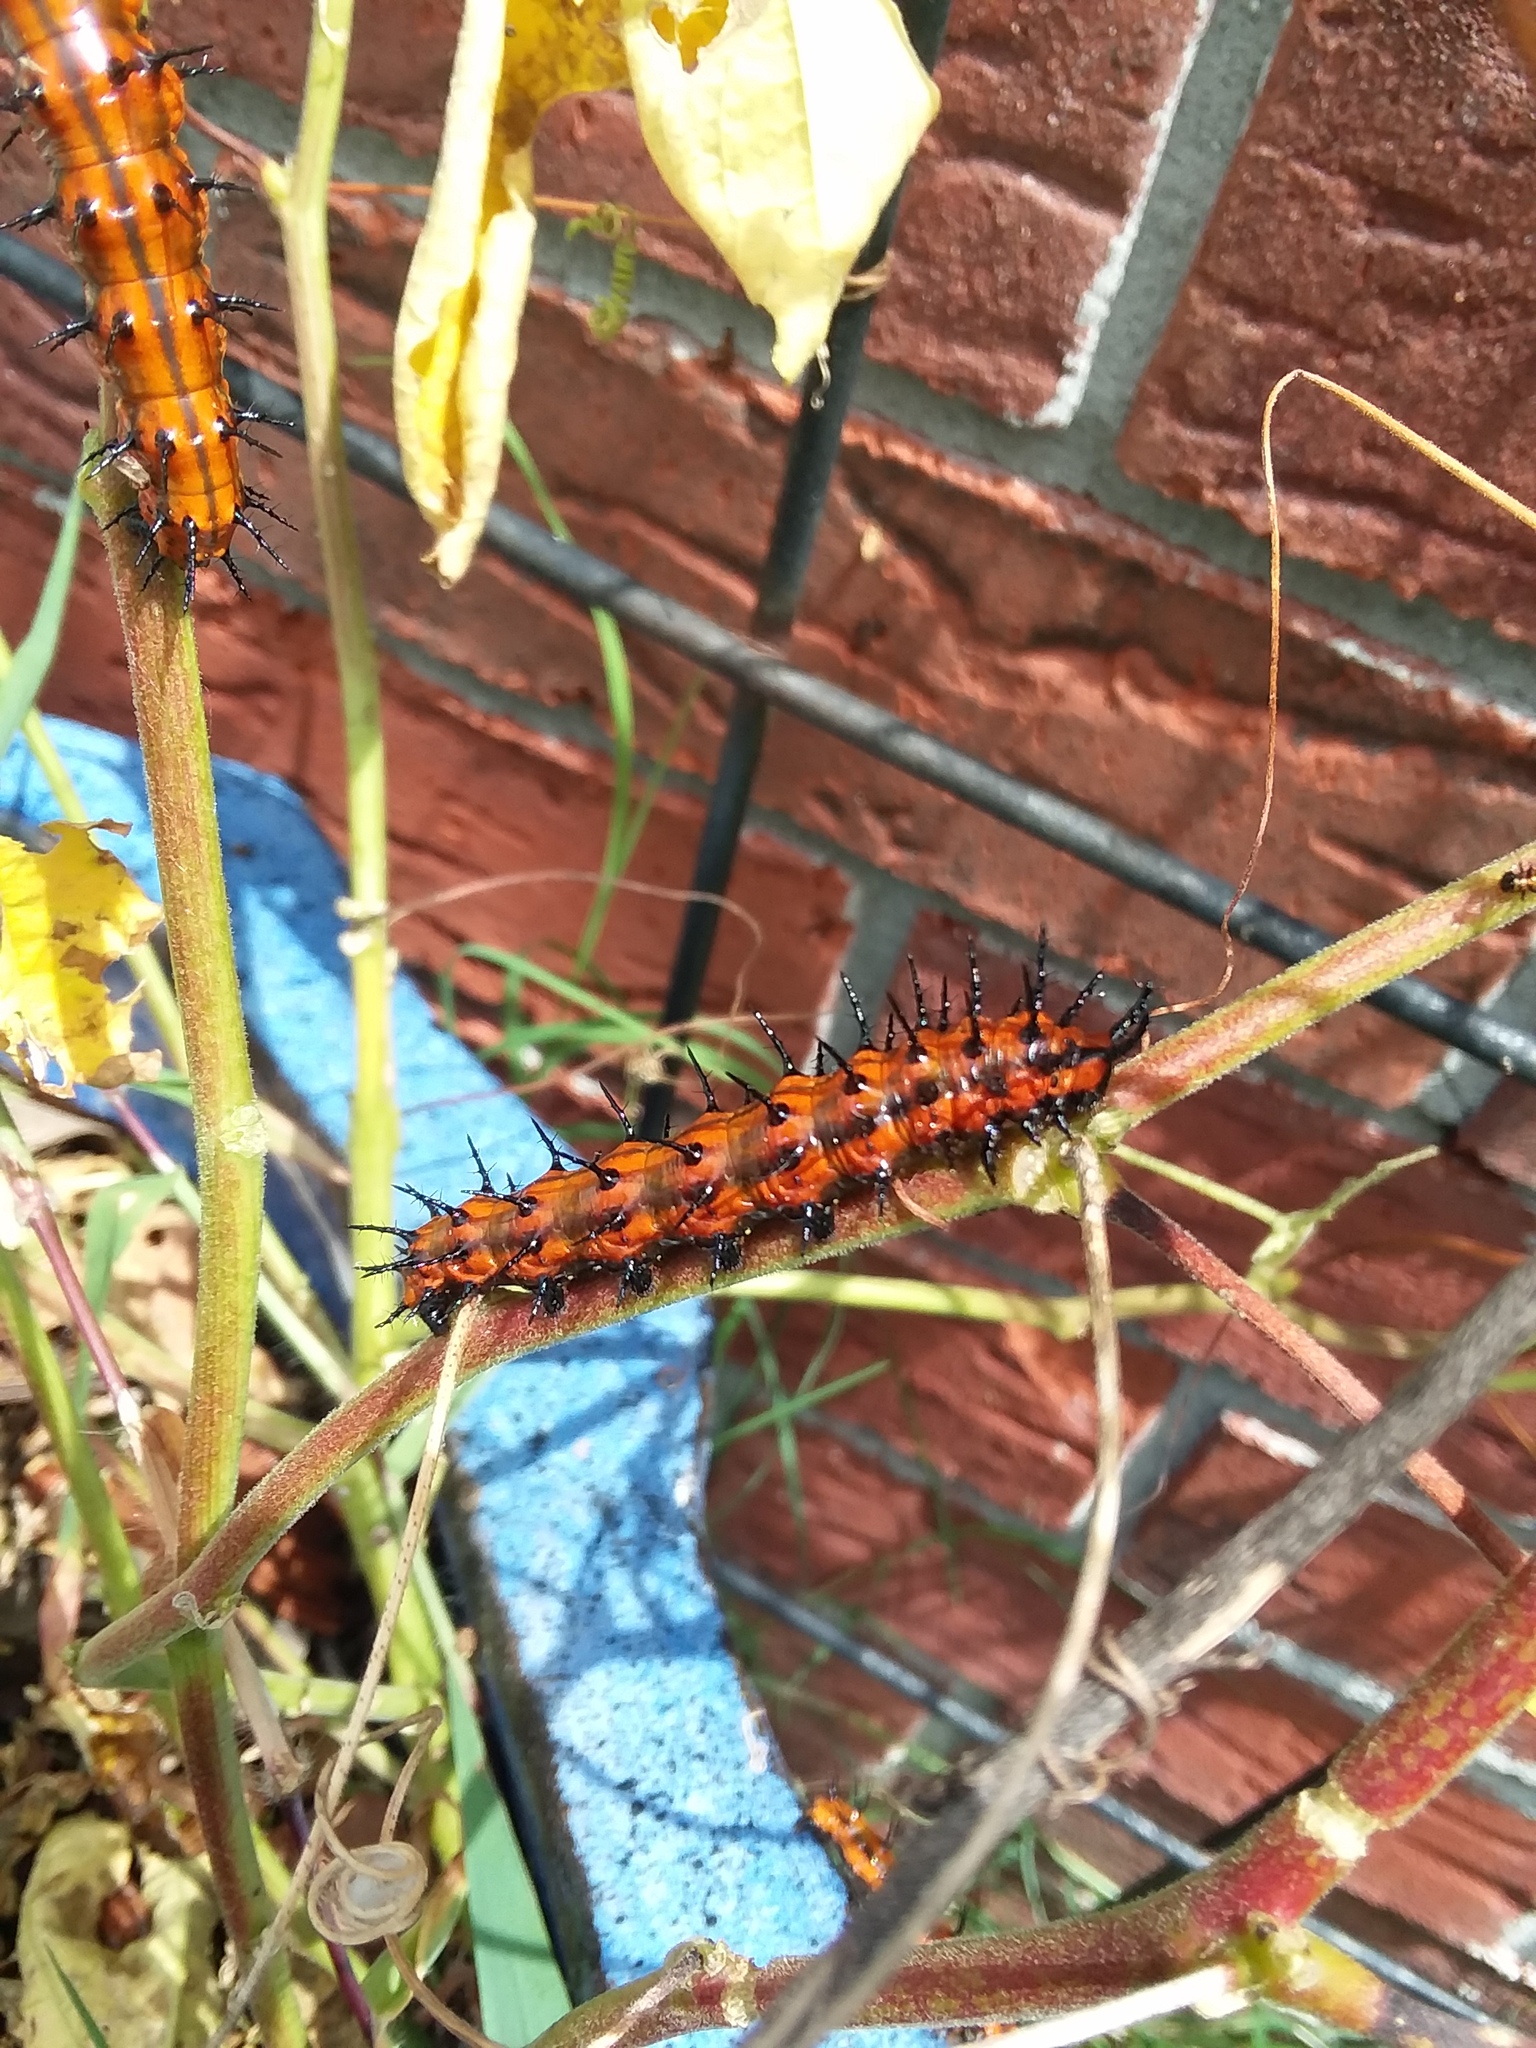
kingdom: Animalia
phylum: Arthropoda
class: Insecta
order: Lepidoptera
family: Nymphalidae
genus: Dione
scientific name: Dione vanillae
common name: Gulf fritillary
